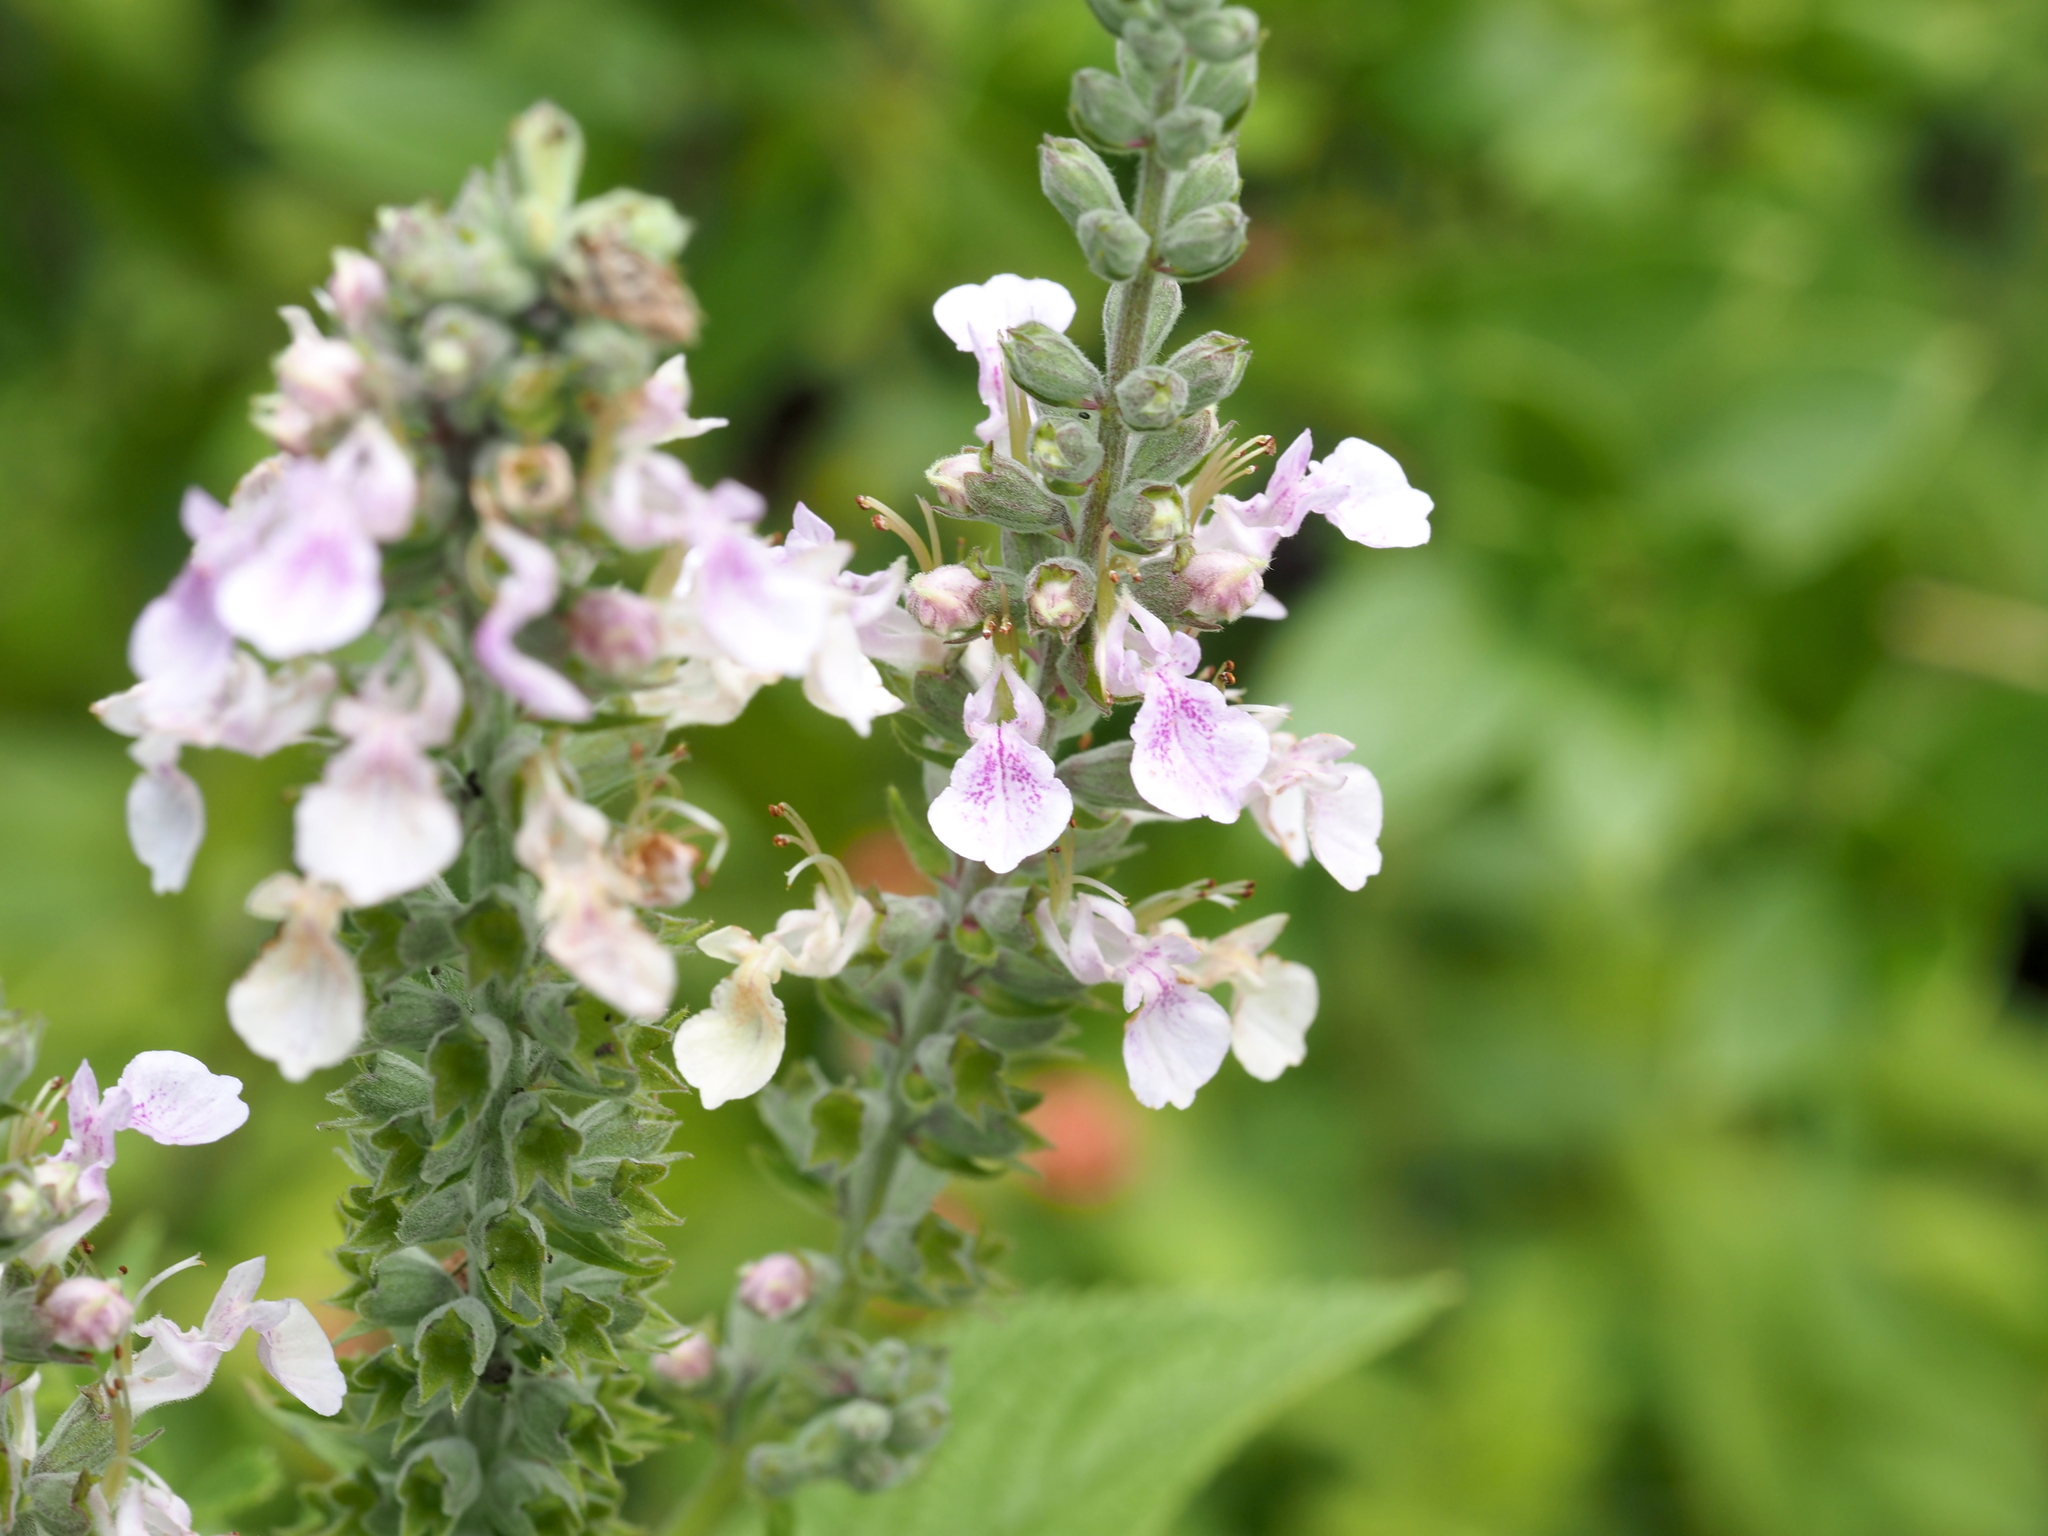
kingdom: Plantae
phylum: Tracheophyta
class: Magnoliopsida
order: Lamiales
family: Lamiaceae
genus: Teucrium
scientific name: Teucrium canadense
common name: American germander
